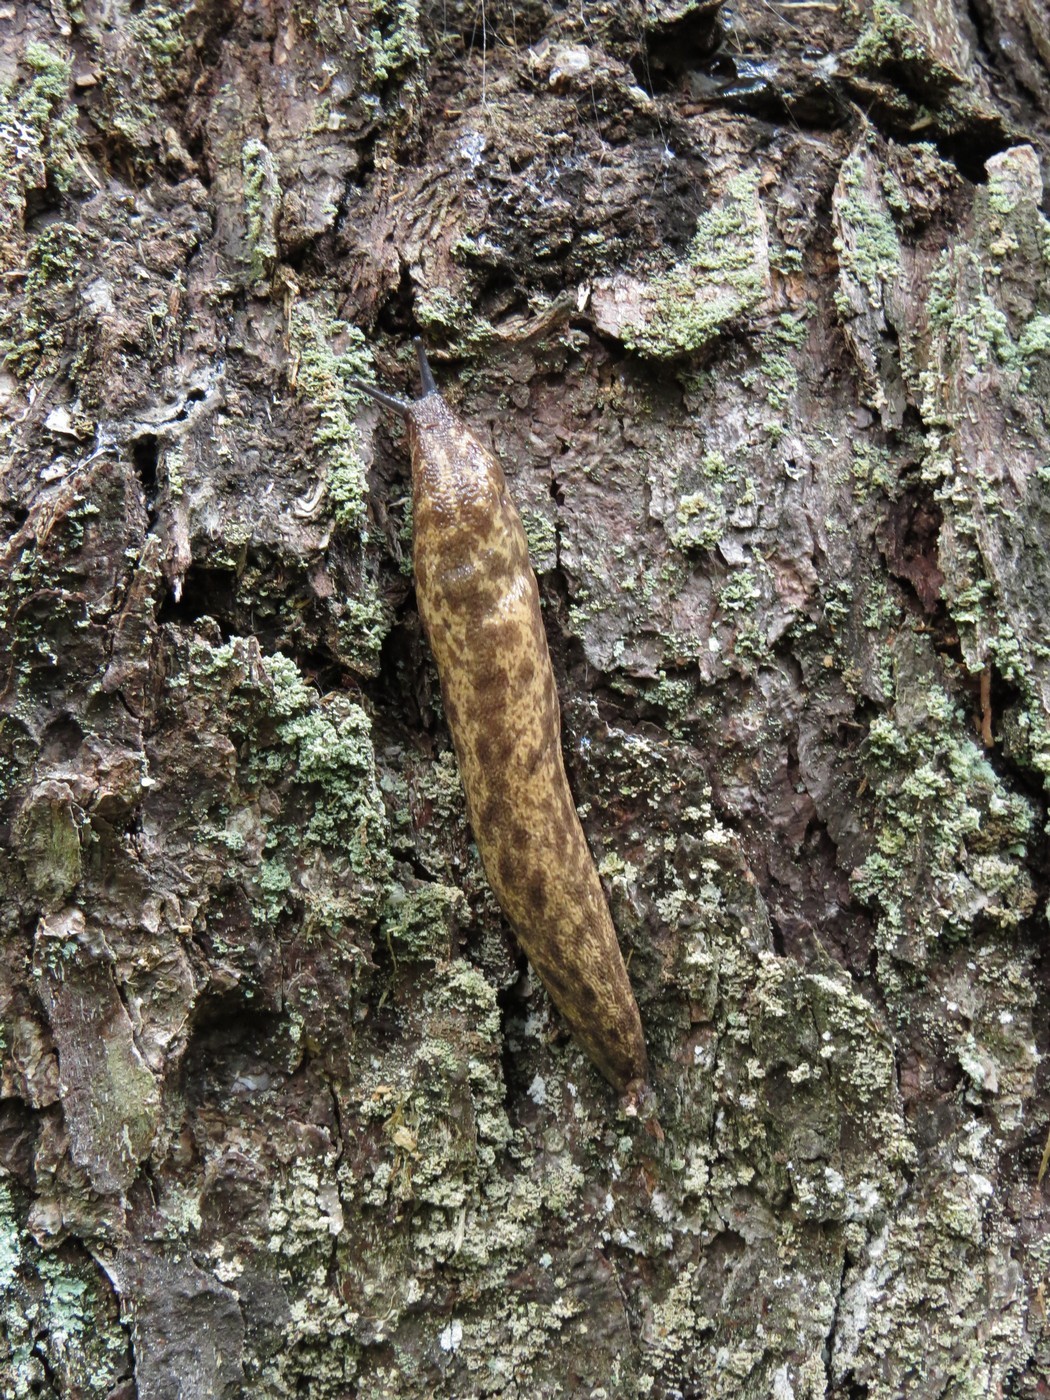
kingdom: Animalia
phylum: Mollusca
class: Gastropoda
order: Stylommatophora
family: Philomycidae
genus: Philomycus
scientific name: Philomycus flexuolaris
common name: Winding mantleslug
